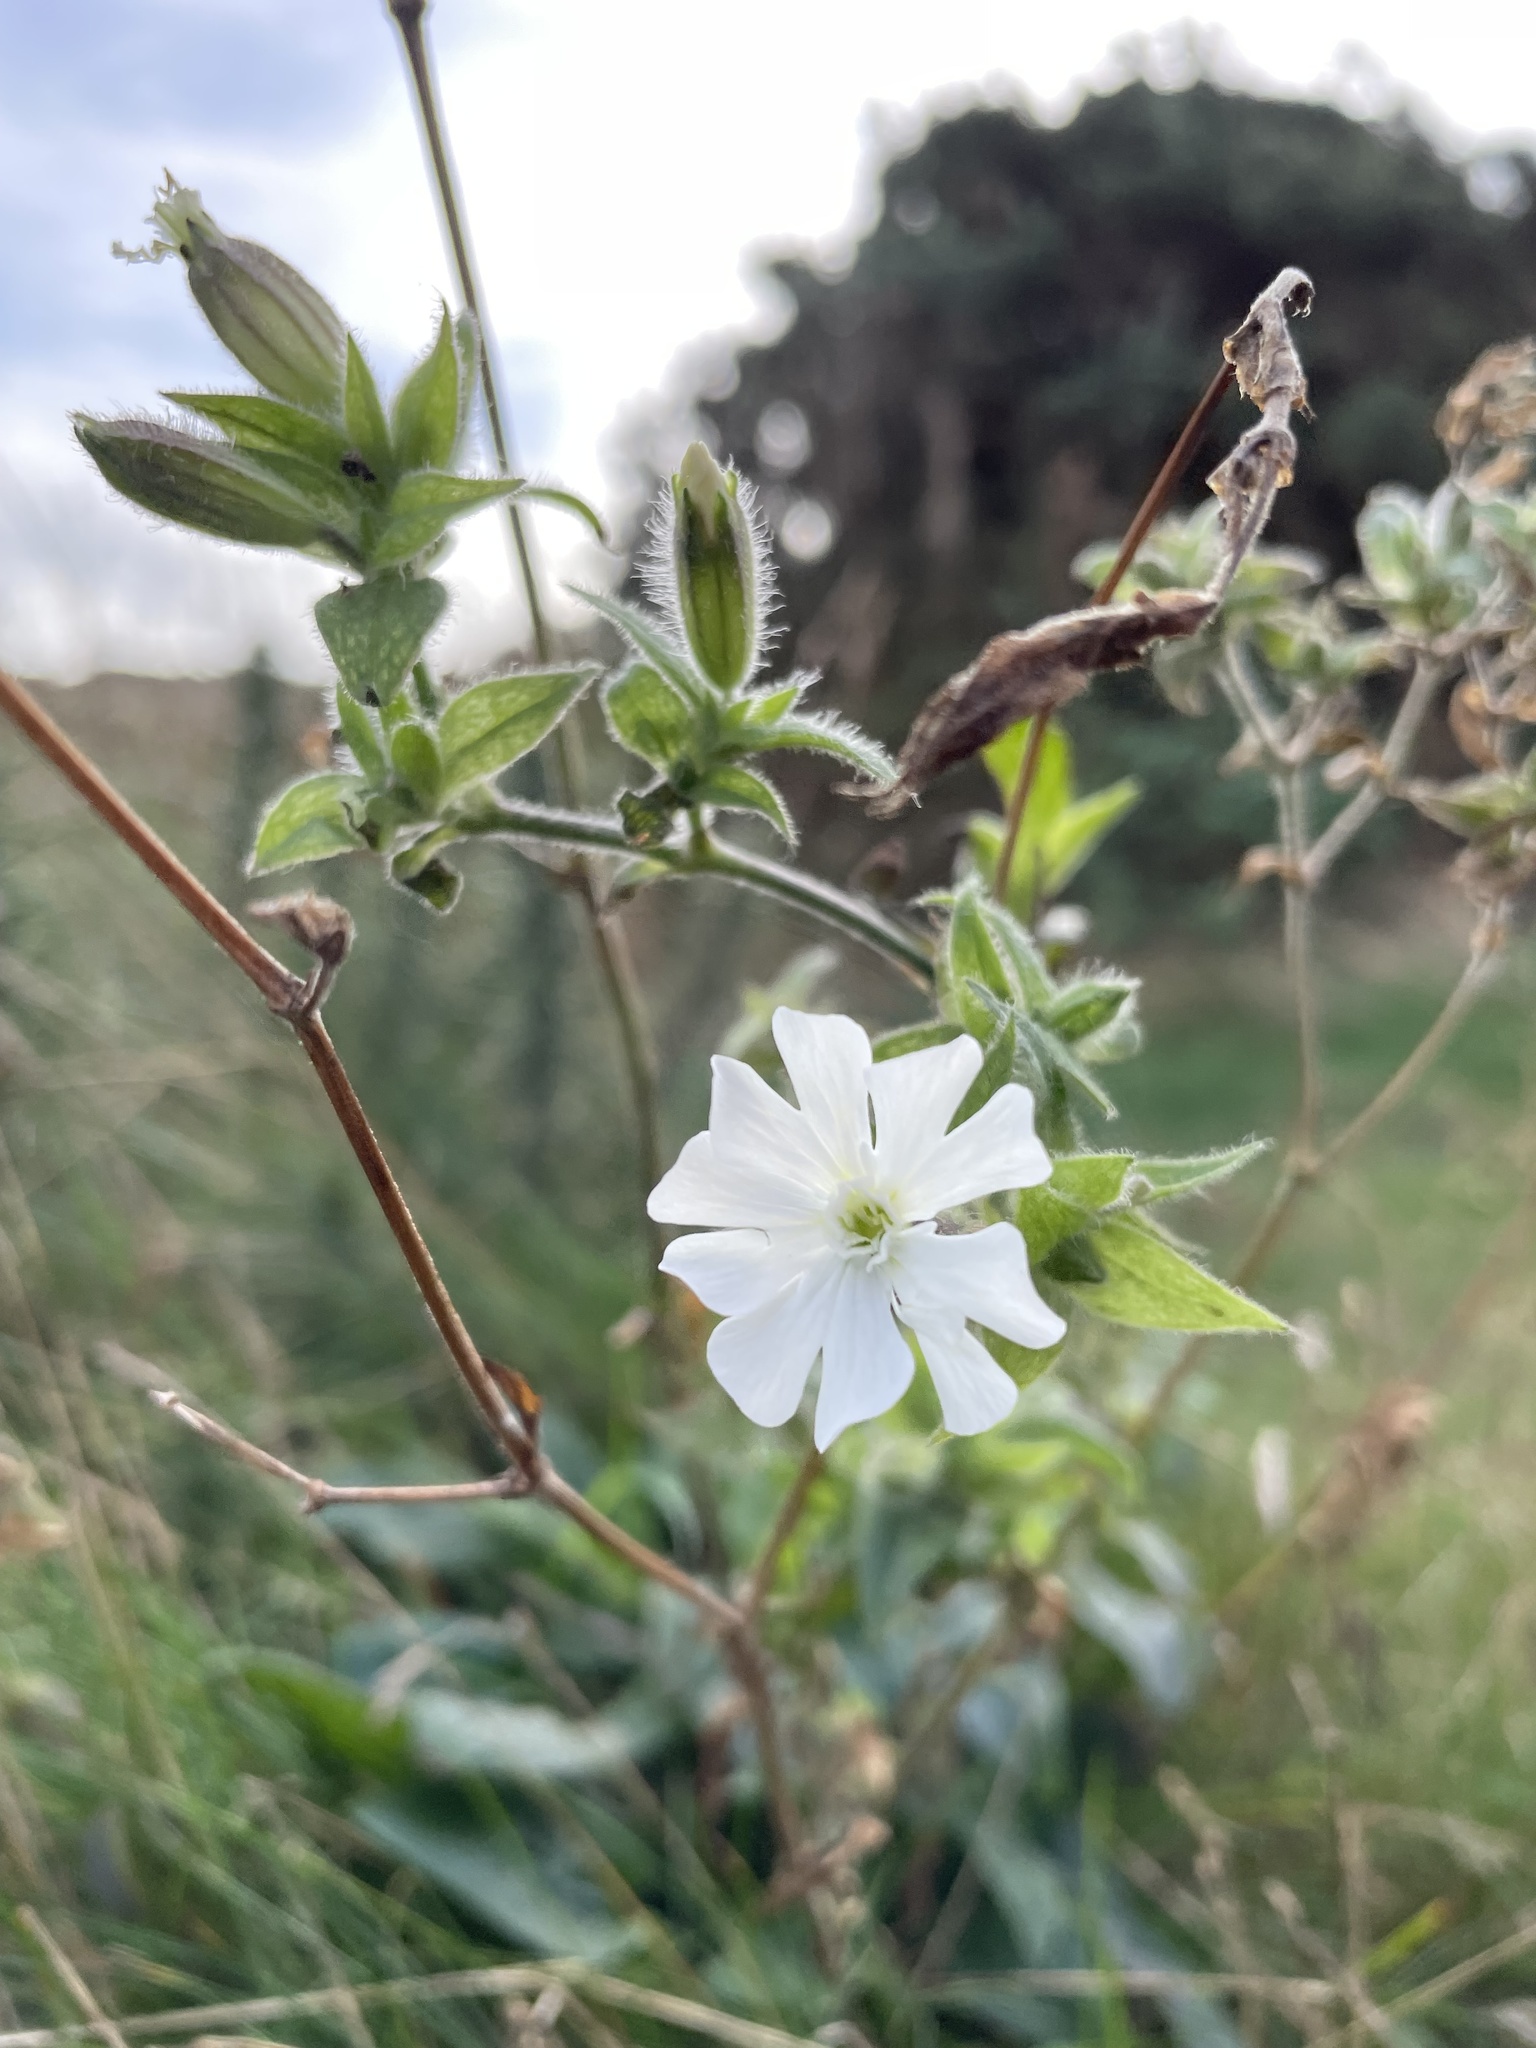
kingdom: Plantae
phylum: Tracheophyta
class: Magnoliopsida
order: Caryophyllales
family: Caryophyllaceae
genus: Silene
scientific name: Silene latifolia
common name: White campion
